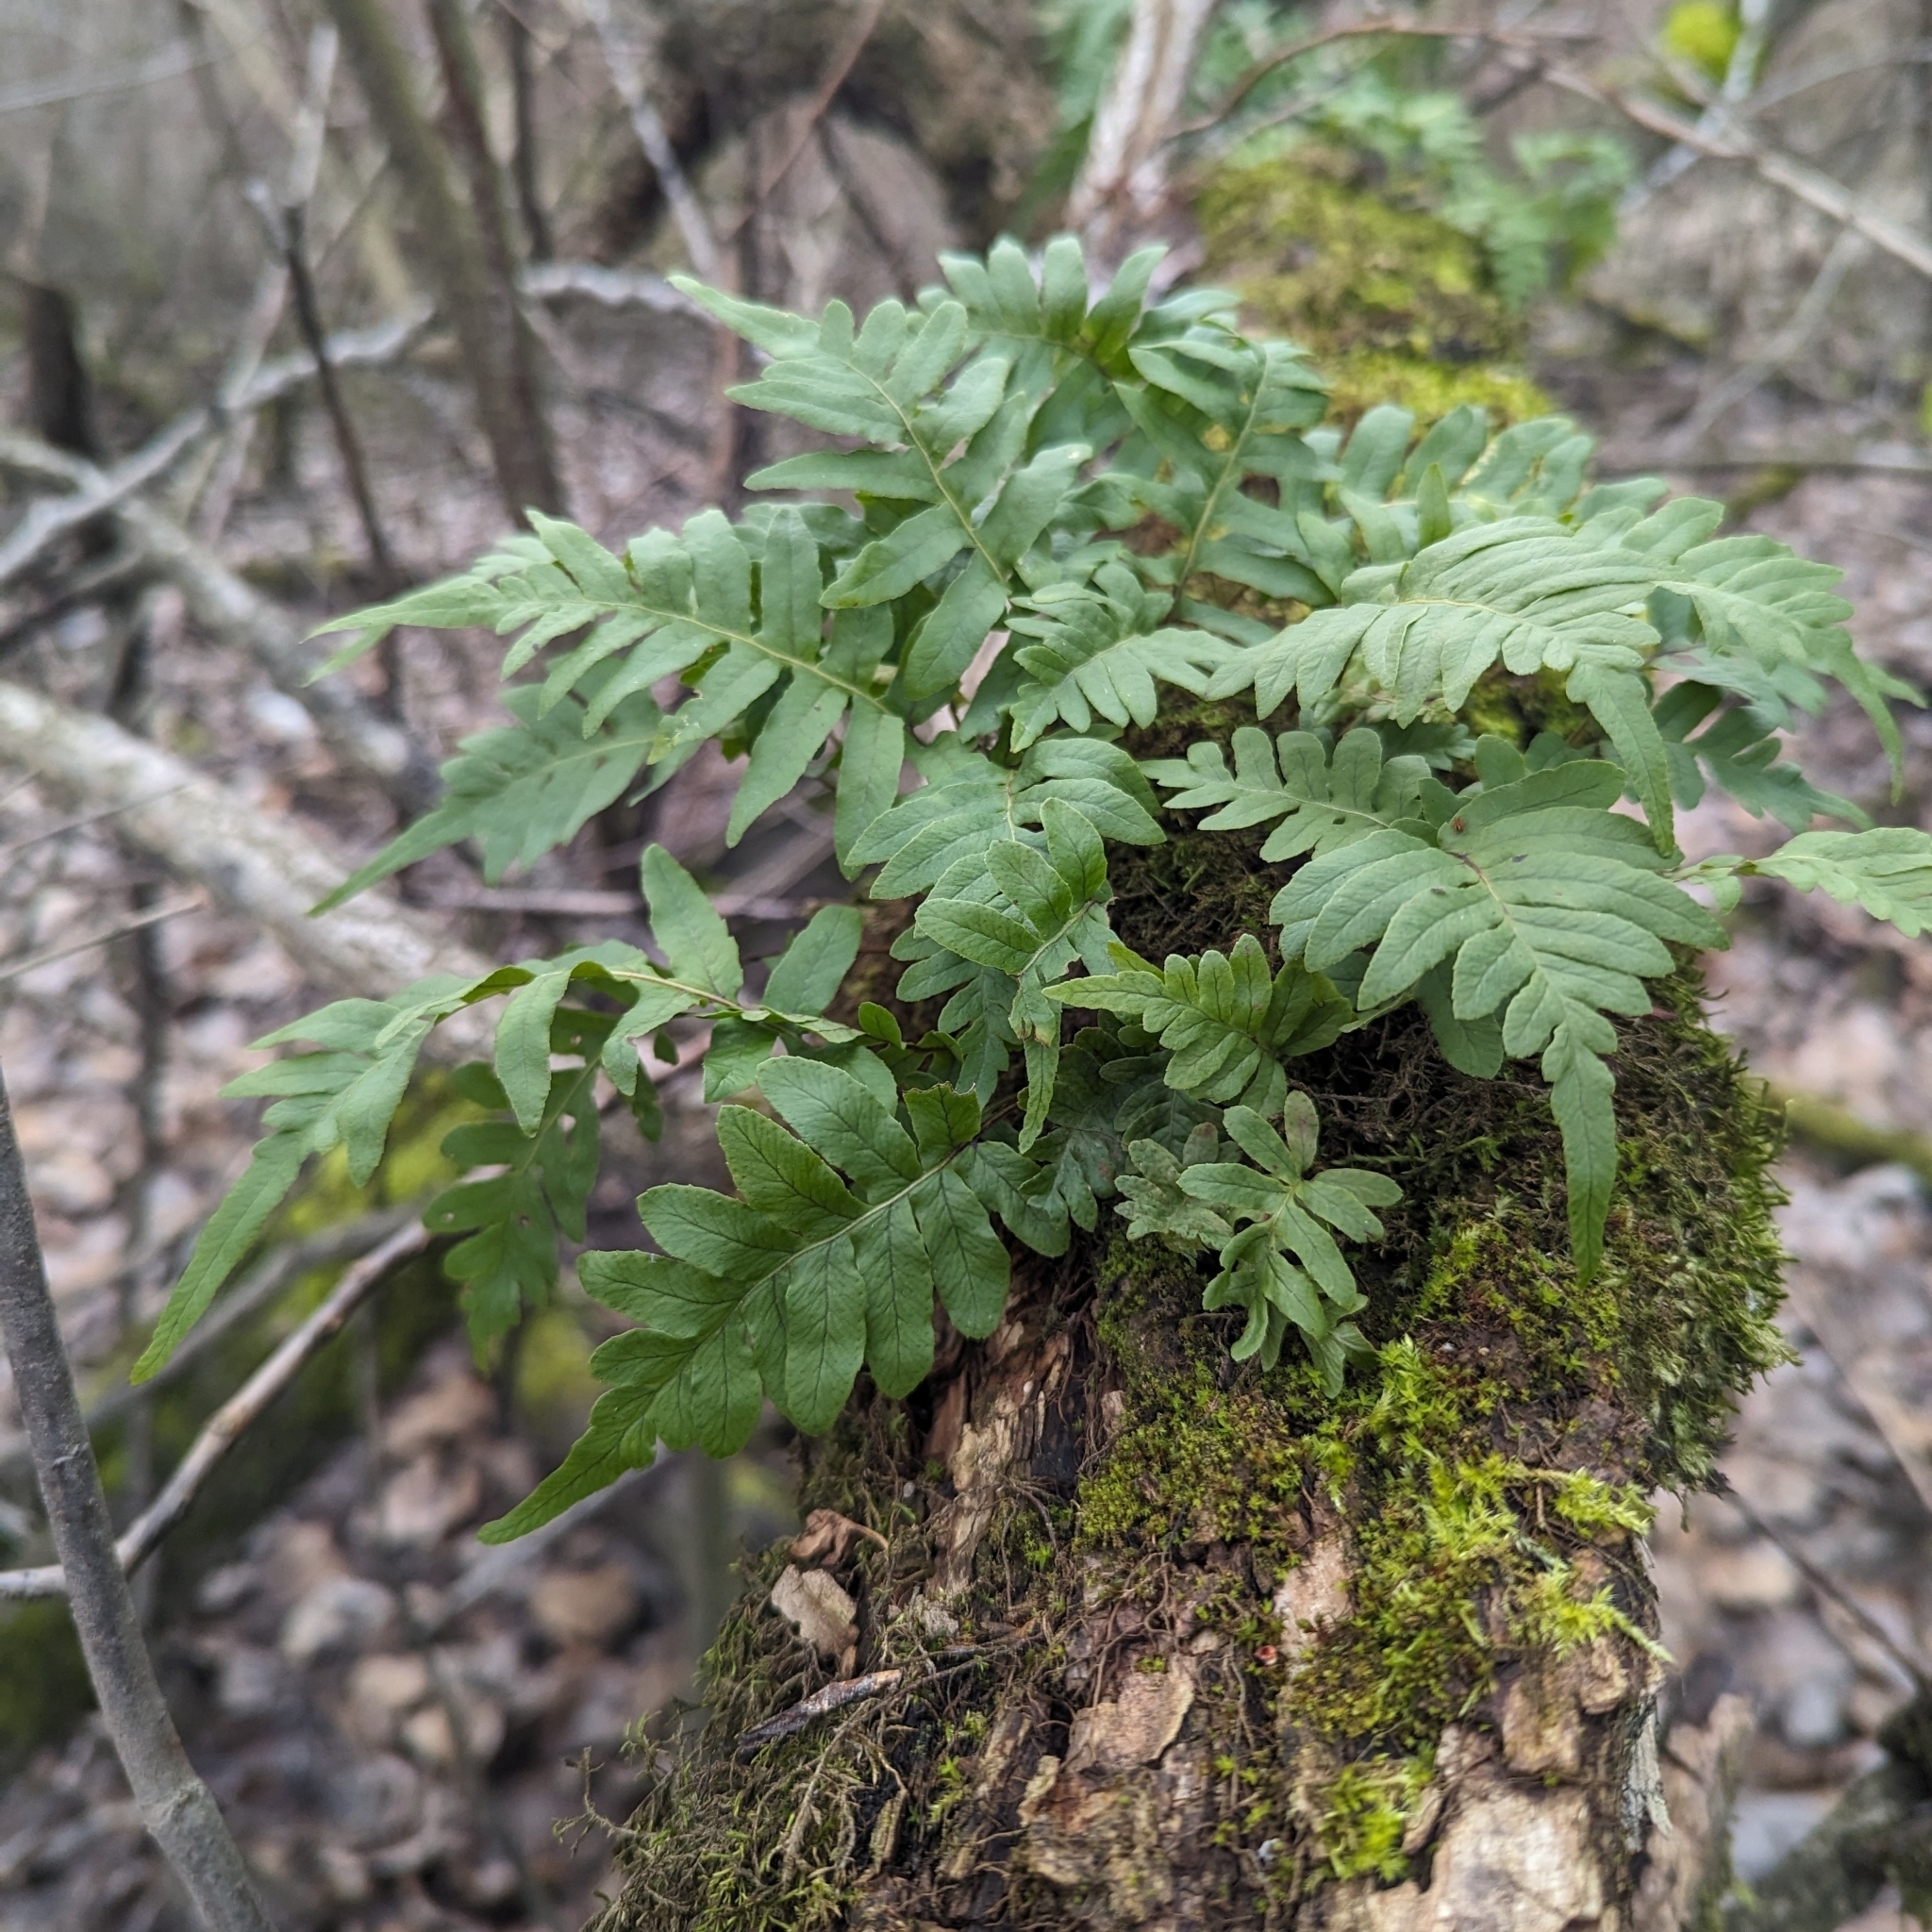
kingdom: Plantae
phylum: Tracheophyta
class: Polypodiopsida
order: Polypodiales
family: Polypodiaceae
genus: Polypodium
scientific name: Polypodium glycyrrhiza
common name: Licorice fern
